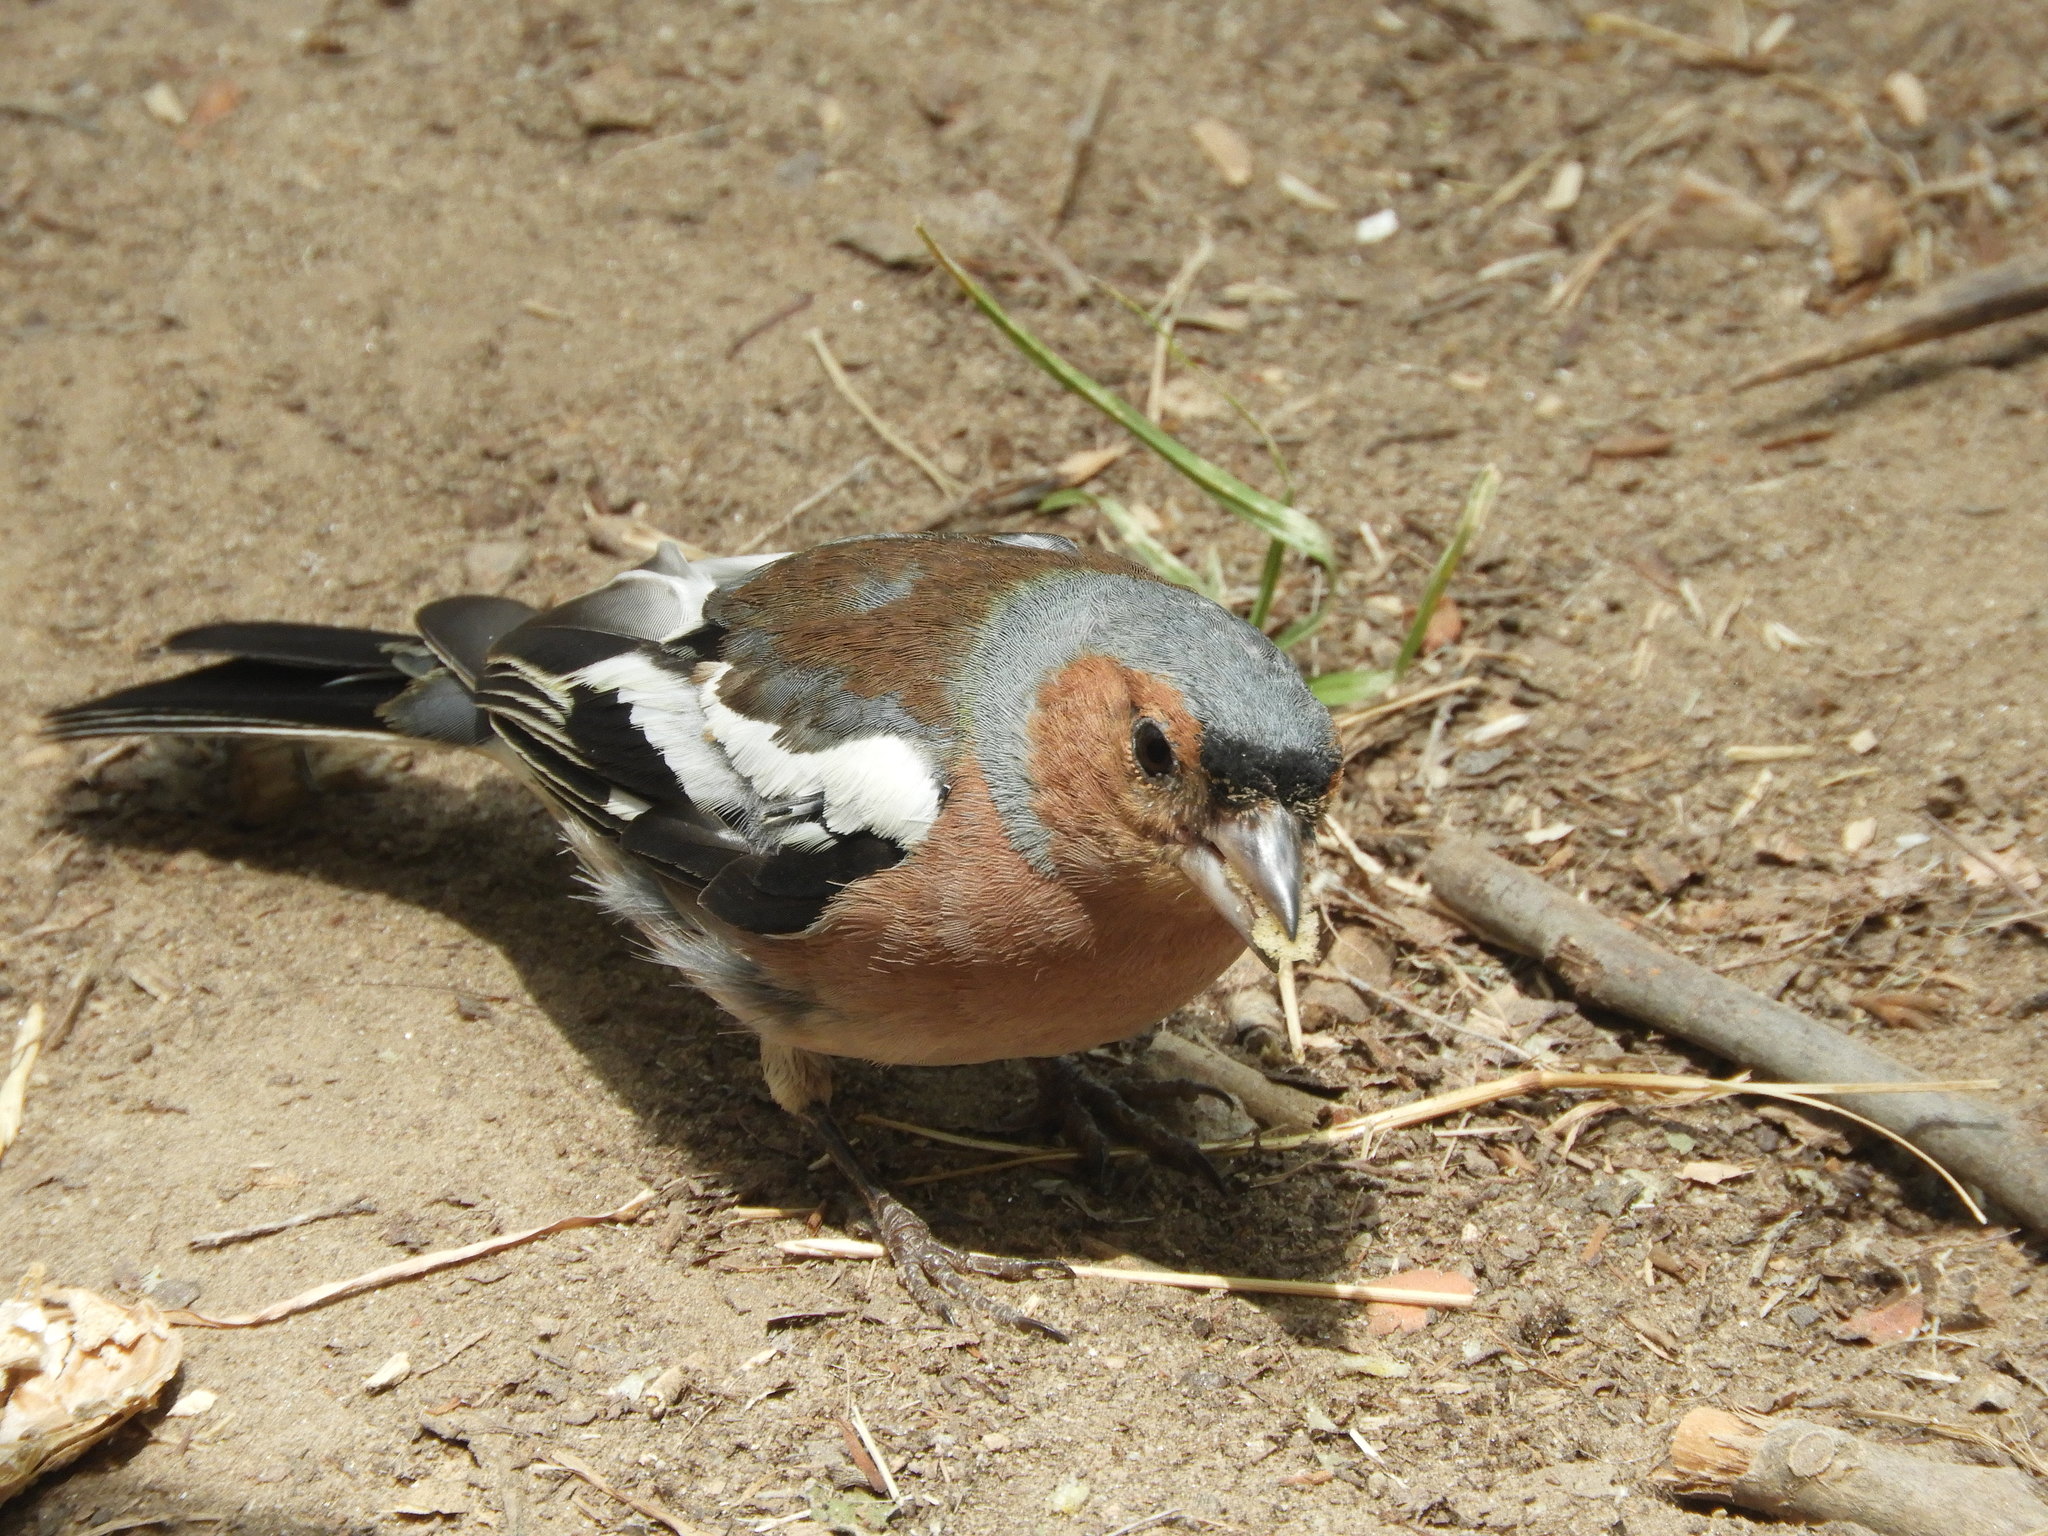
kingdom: Animalia
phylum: Chordata
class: Aves
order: Passeriformes
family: Fringillidae
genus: Fringilla
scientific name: Fringilla coelebs
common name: Common chaffinch
